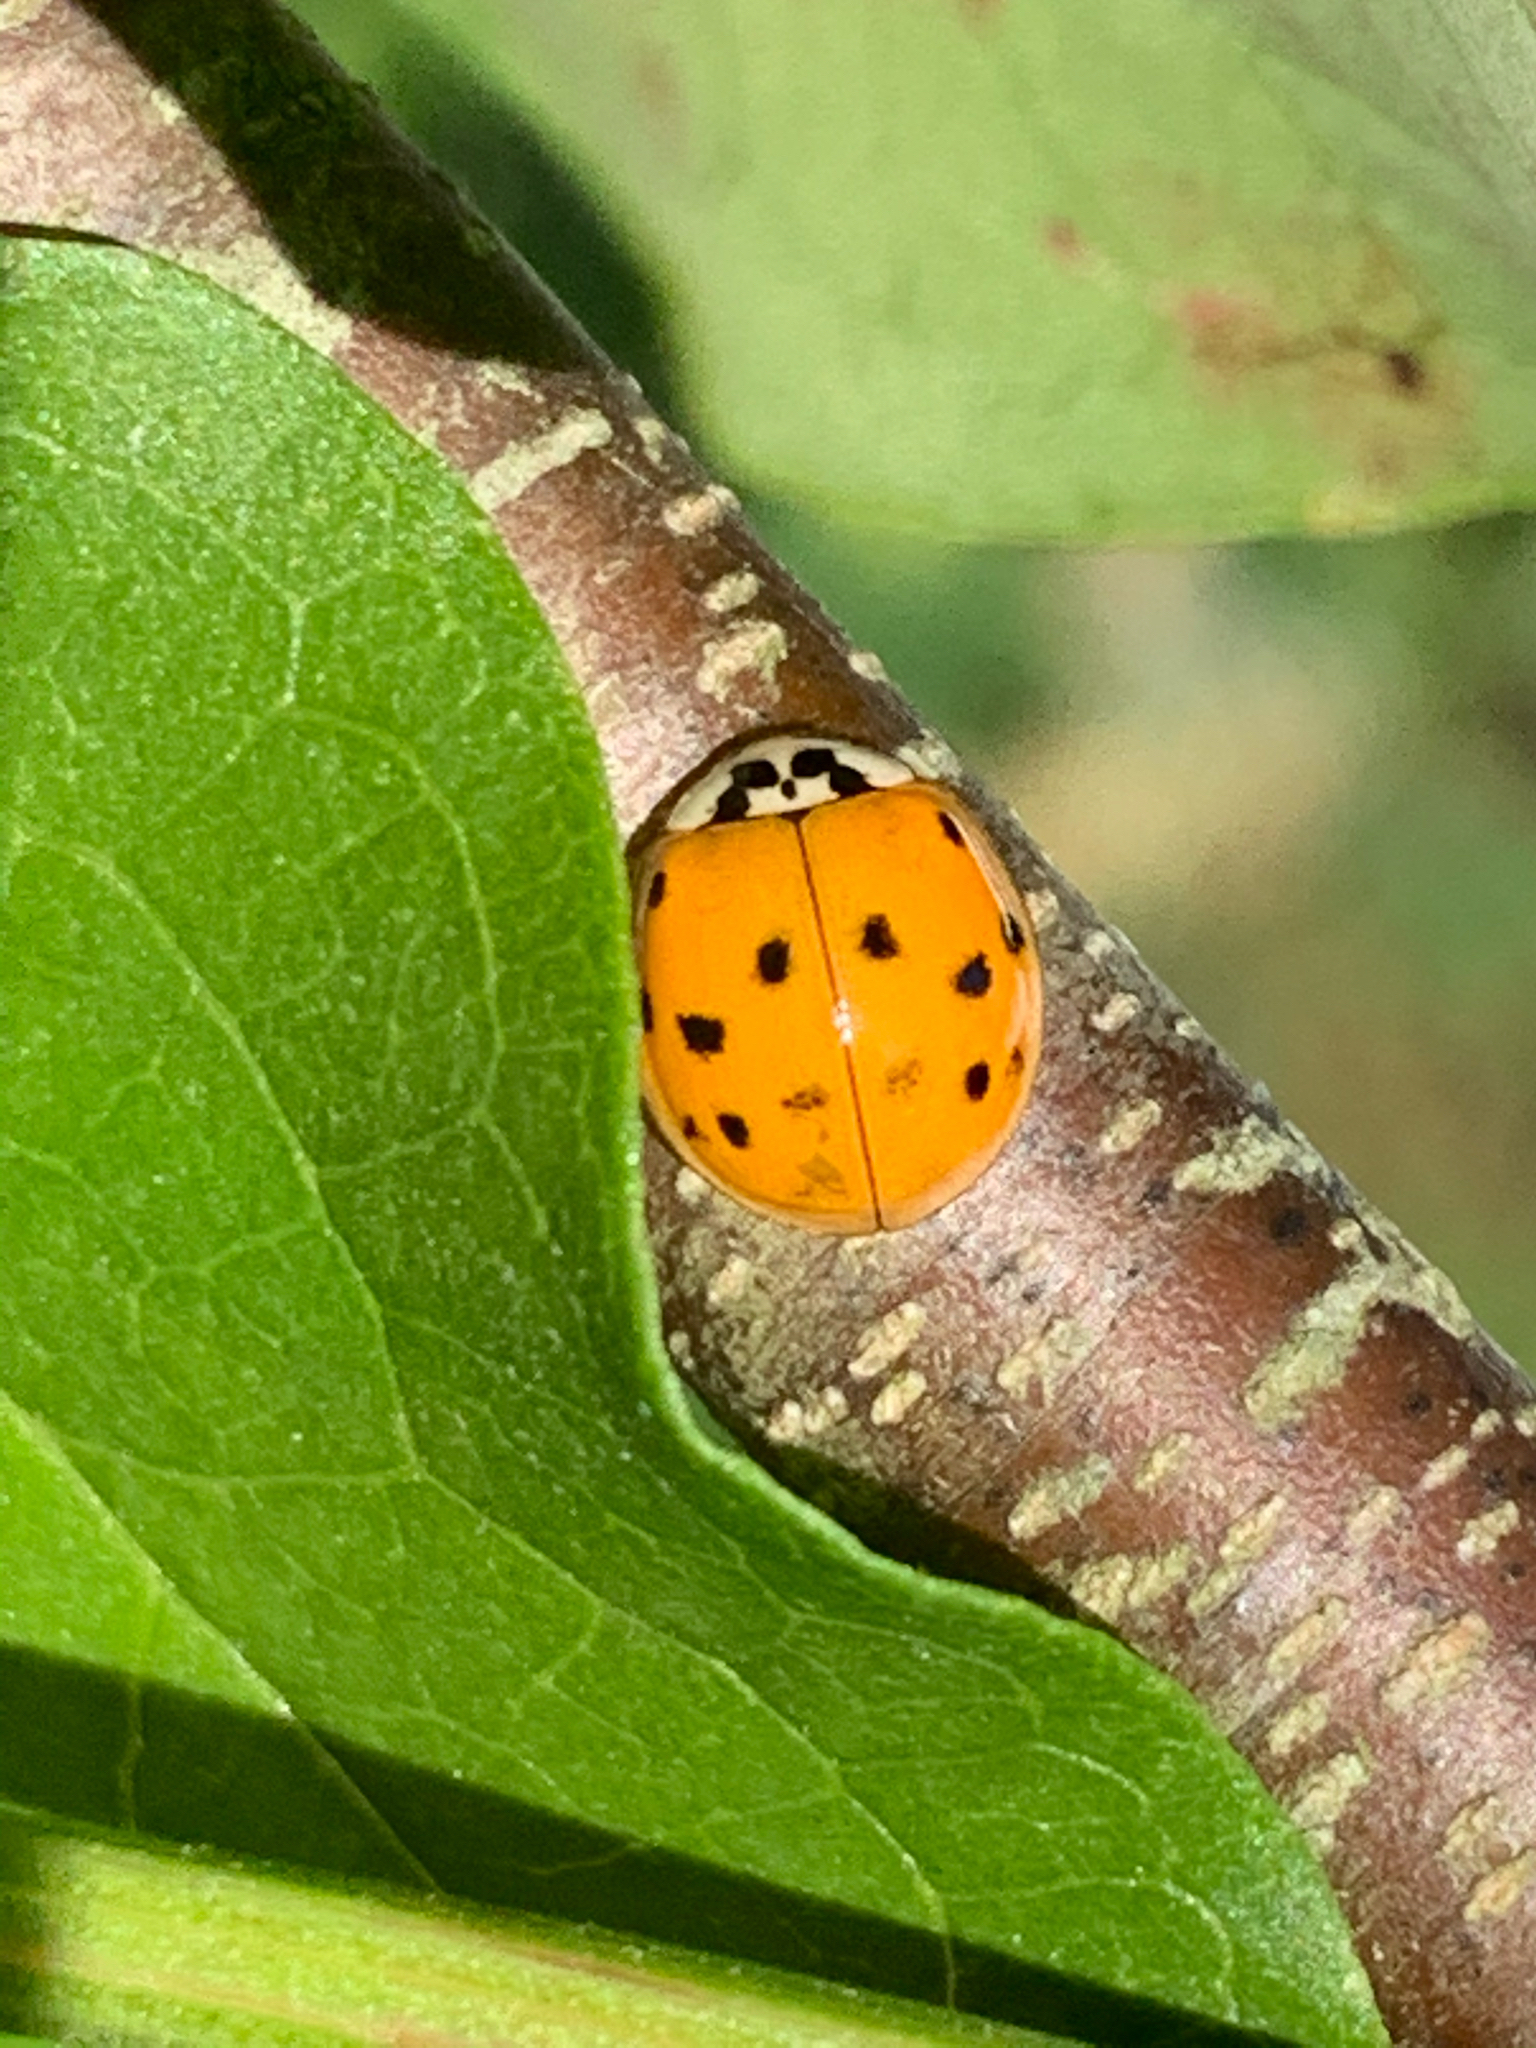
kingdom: Animalia
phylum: Arthropoda
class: Insecta
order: Coleoptera
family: Coccinellidae
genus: Harmonia
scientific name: Harmonia axyridis
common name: Harlequin ladybird
